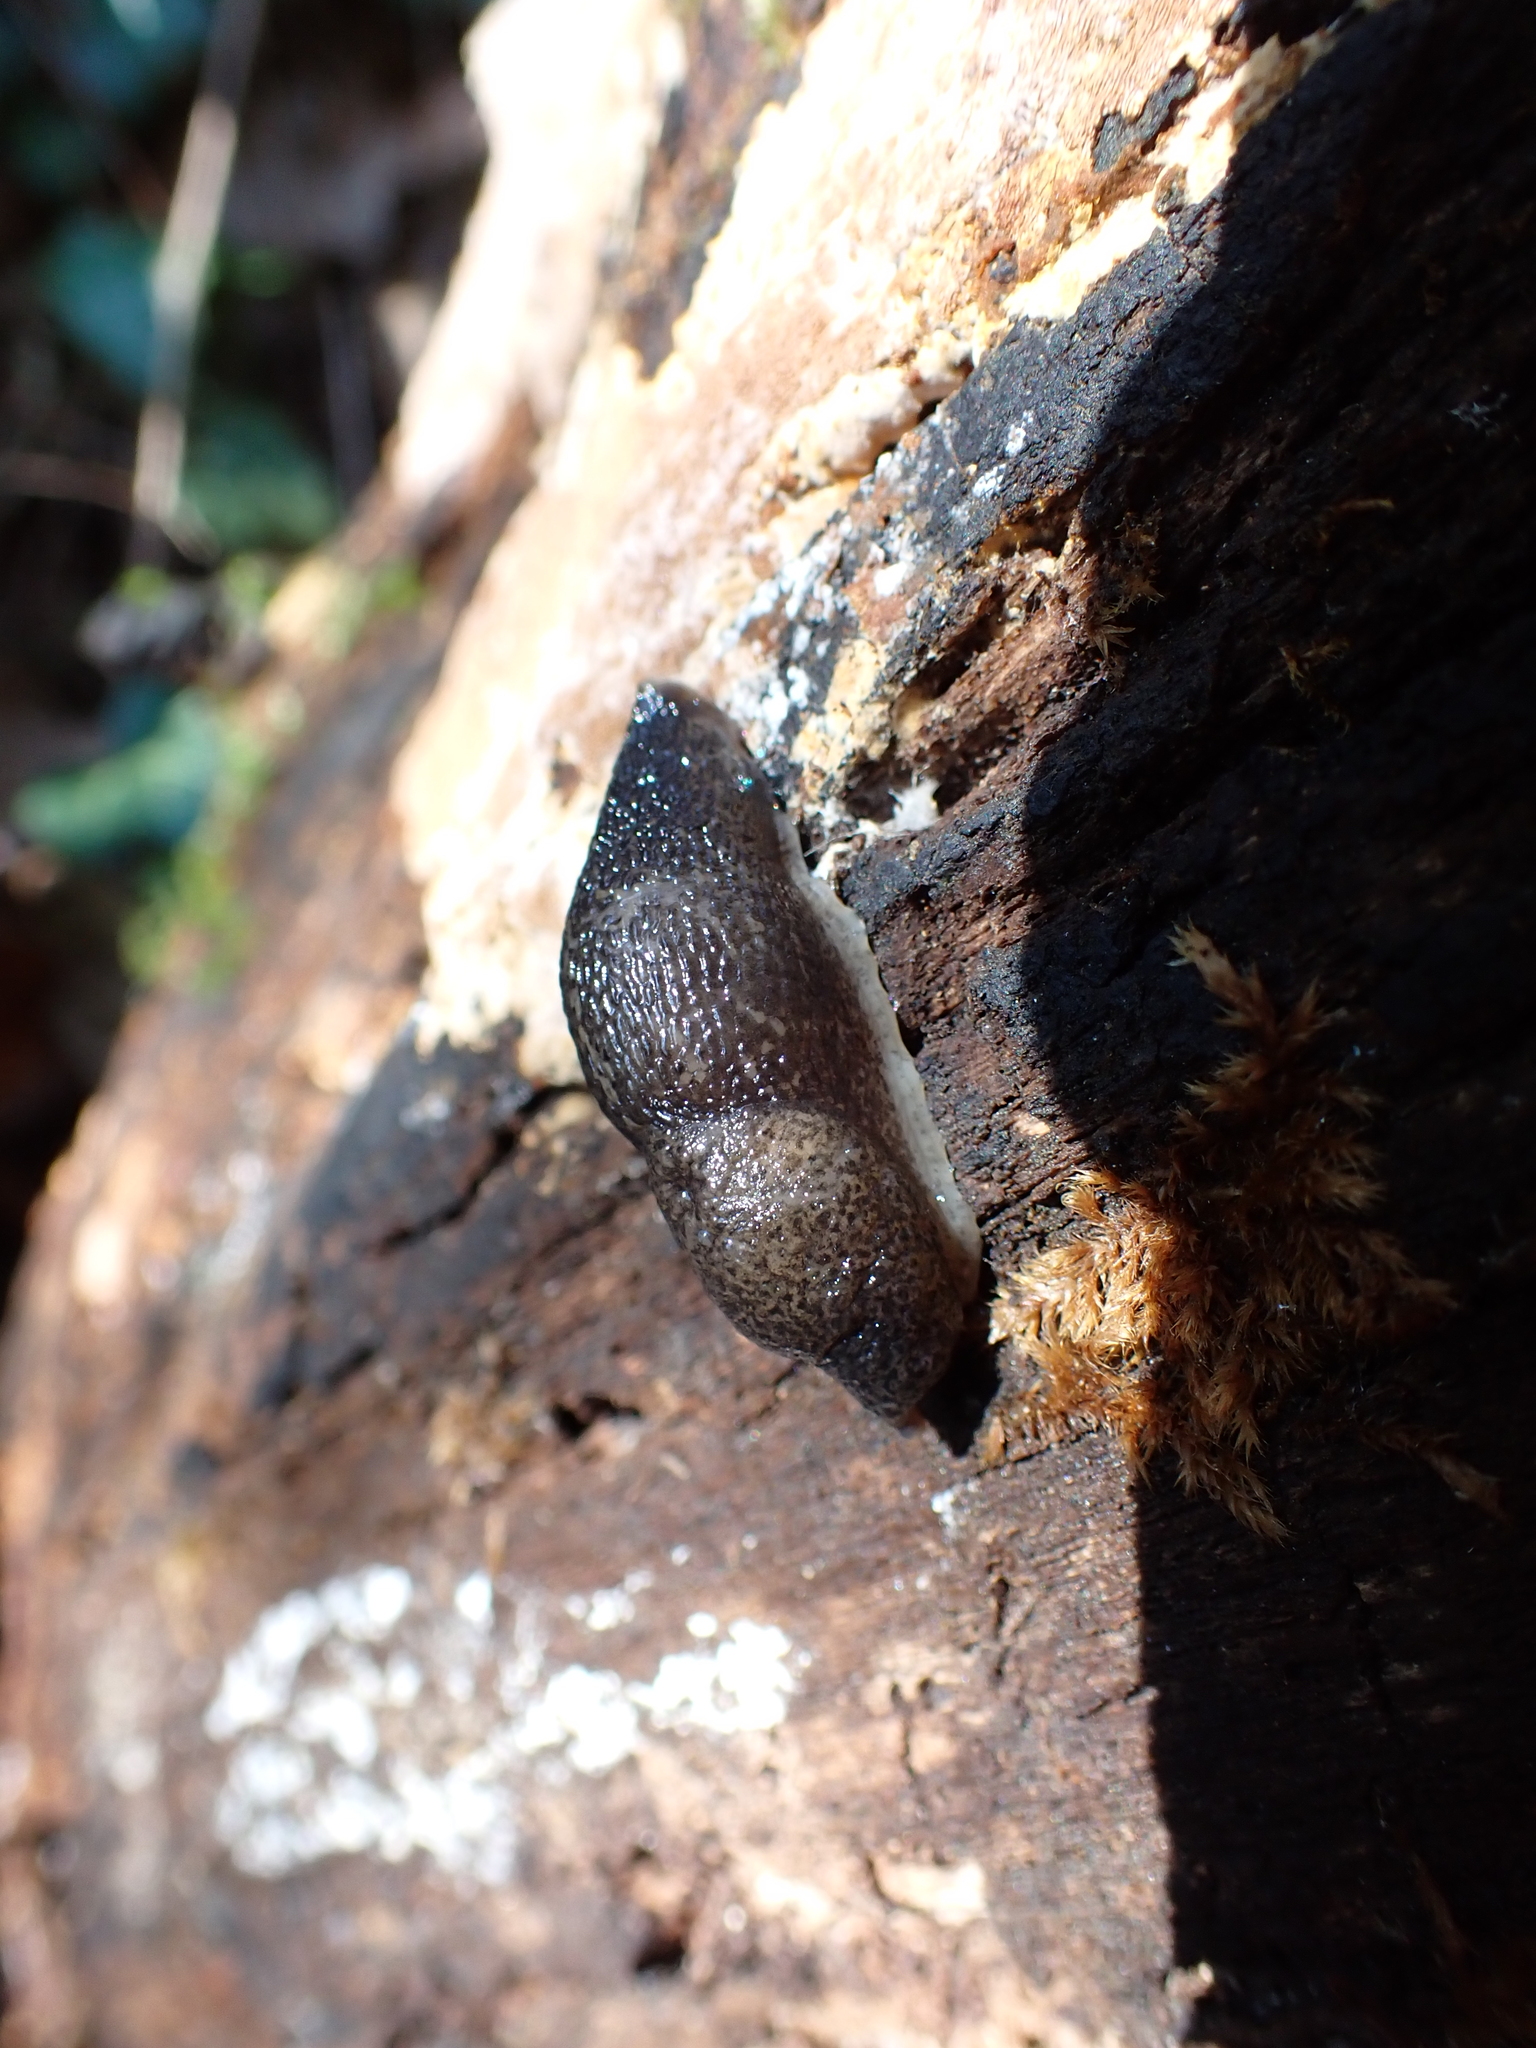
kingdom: Animalia
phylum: Mollusca
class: Gastropoda
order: Stylommatophora
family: Limacidae
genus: Limax
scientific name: Limax maximus
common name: Great grey slug
